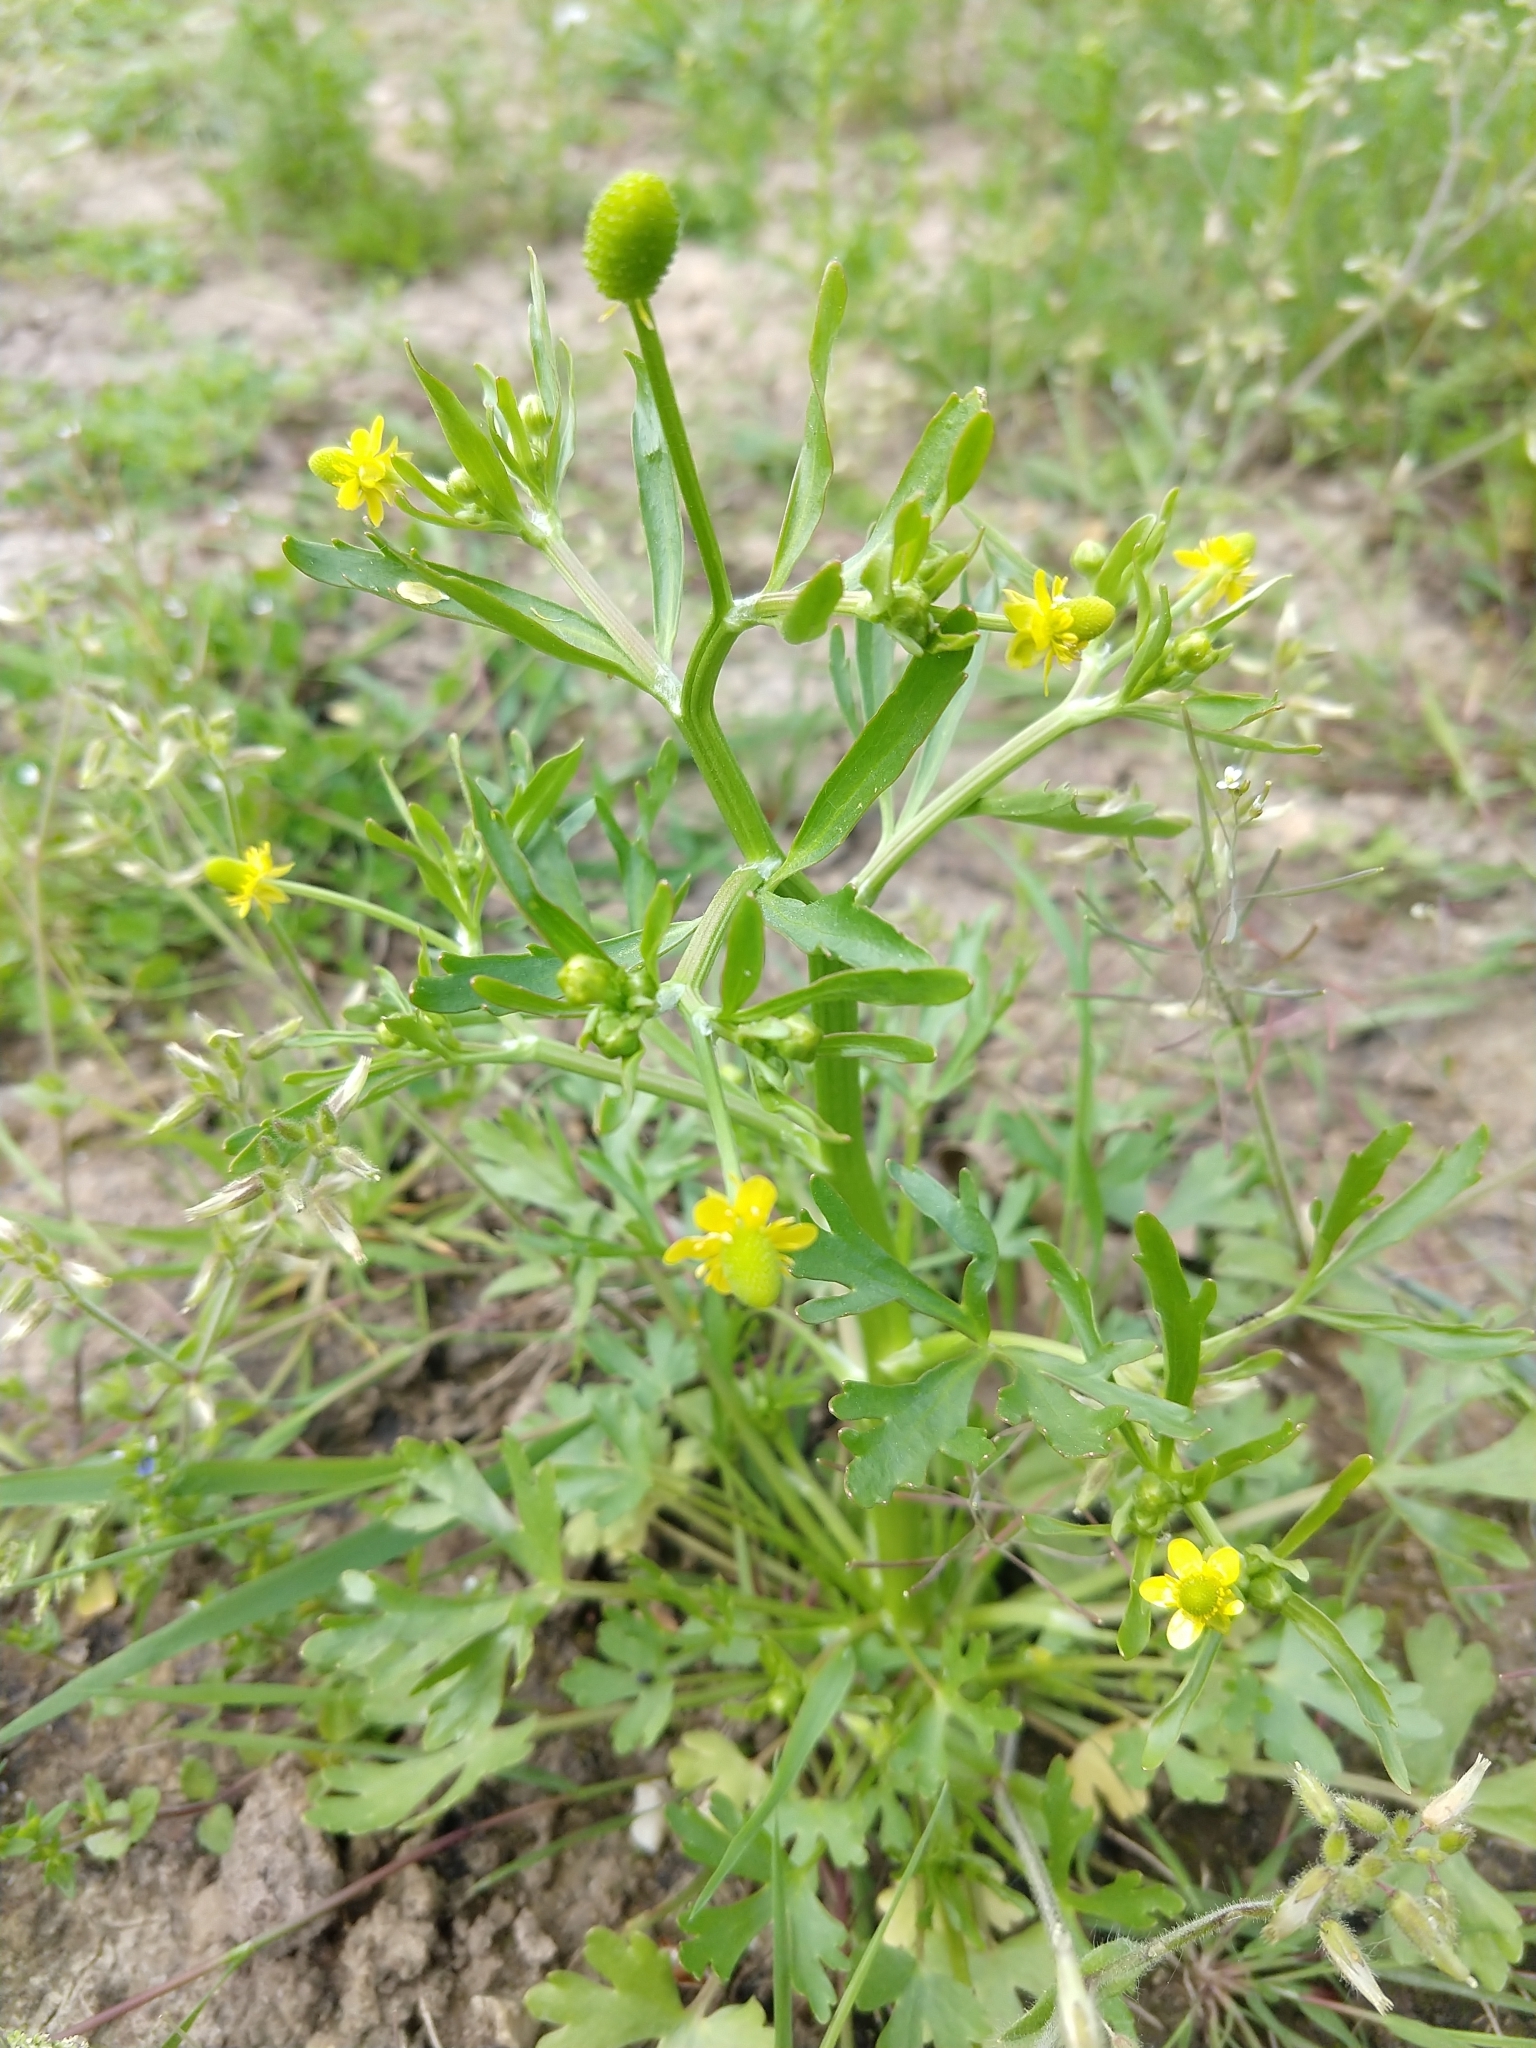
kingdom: Plantae
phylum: Tracheophyta
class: Magnoliopsida
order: Ranunculales
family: Ranunculaceae
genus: Ranunculus
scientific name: Ranunculus sceleratus
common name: Celery-leaved buttercup
